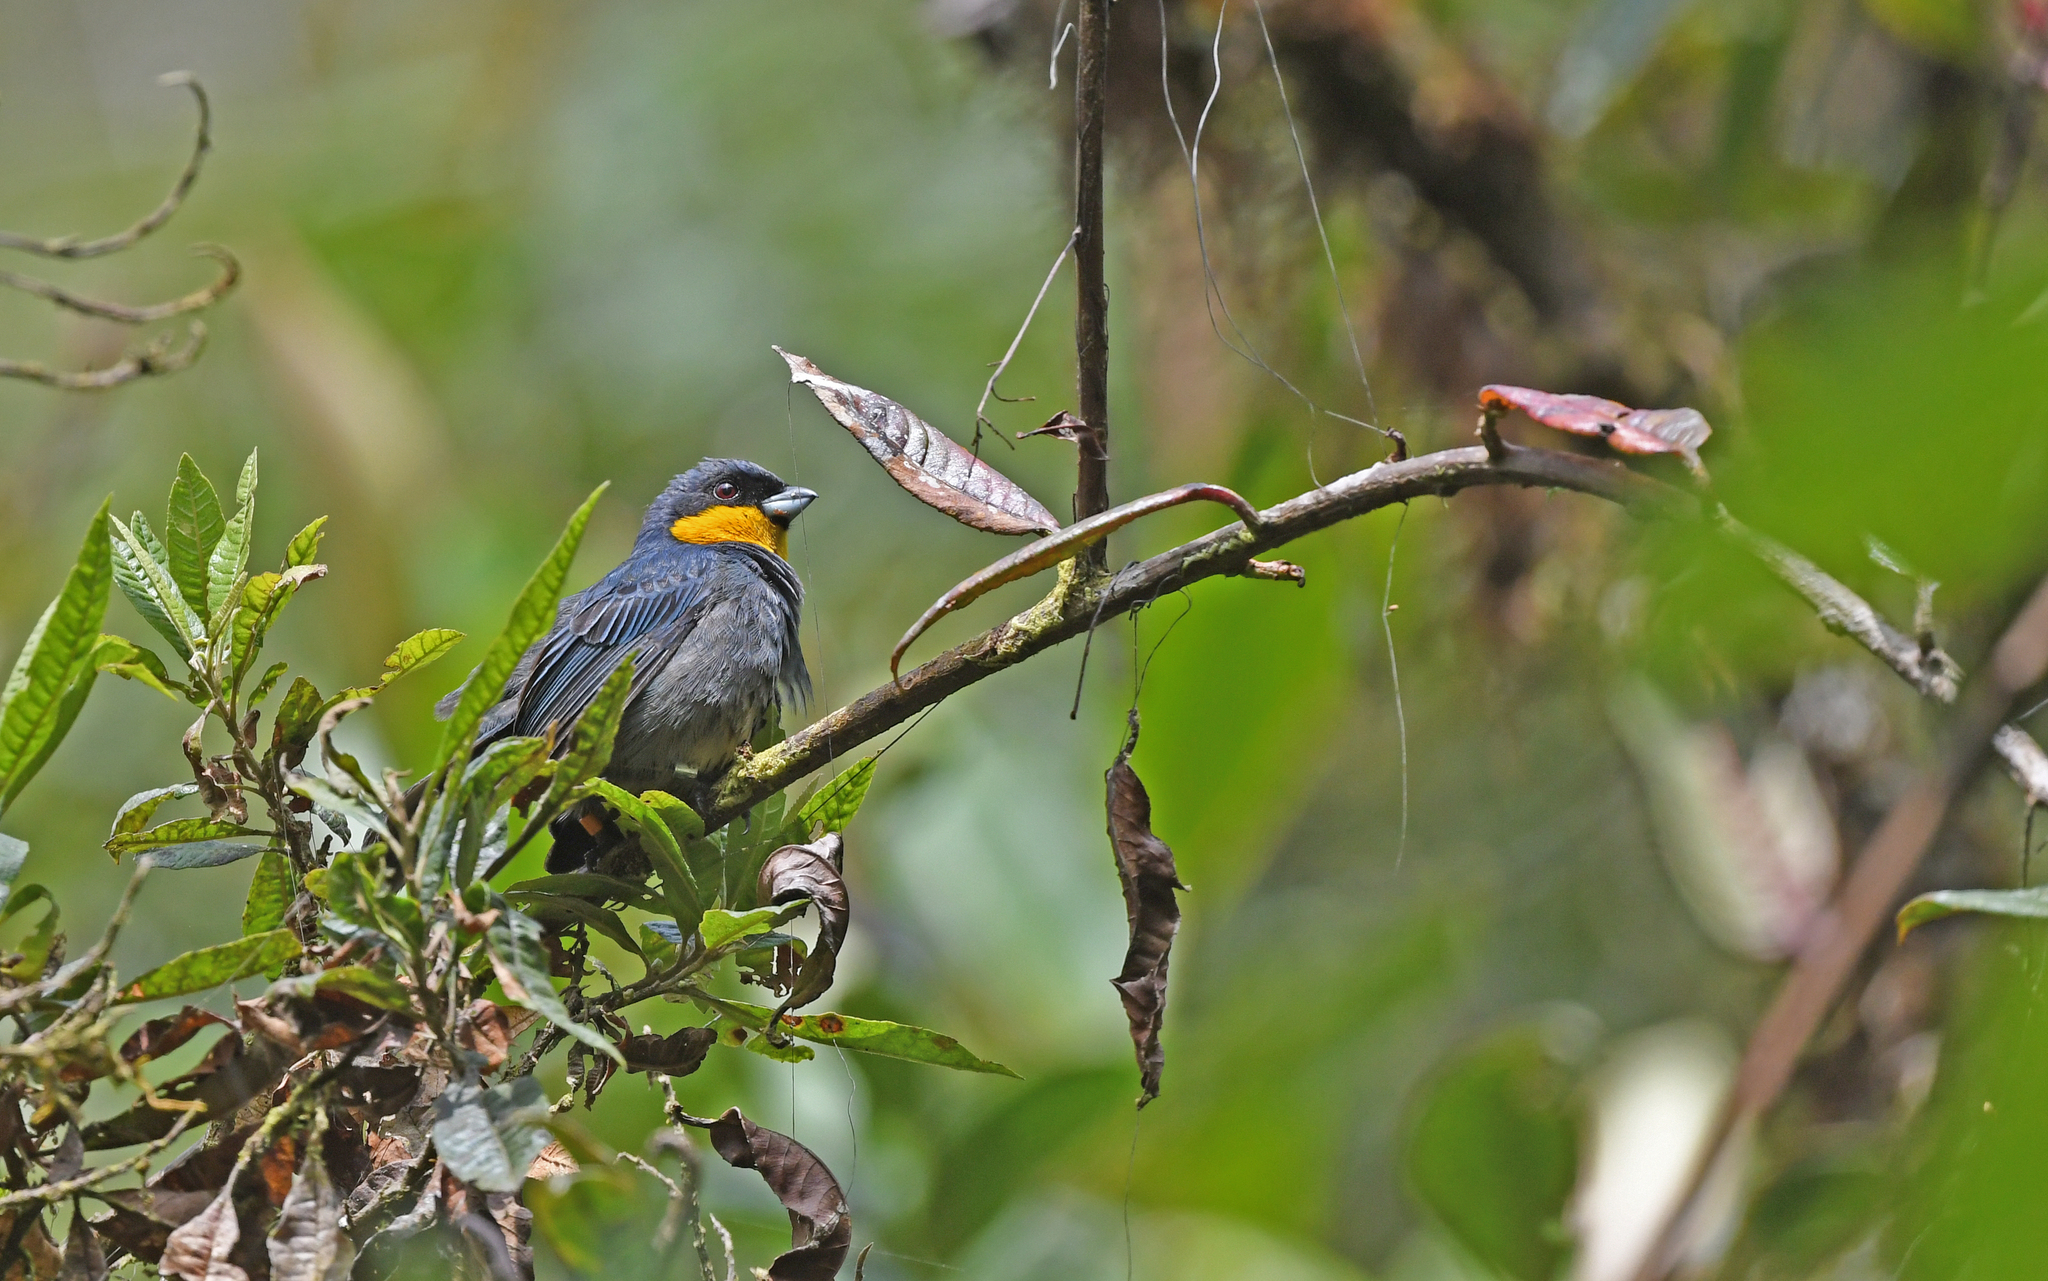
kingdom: Animalia
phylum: Chordata
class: Aves
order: Passeriformes
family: Thraupidae
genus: Iridosornis
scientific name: Iridosornis porphyrocephalus
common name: Purplish-mantled tanager
